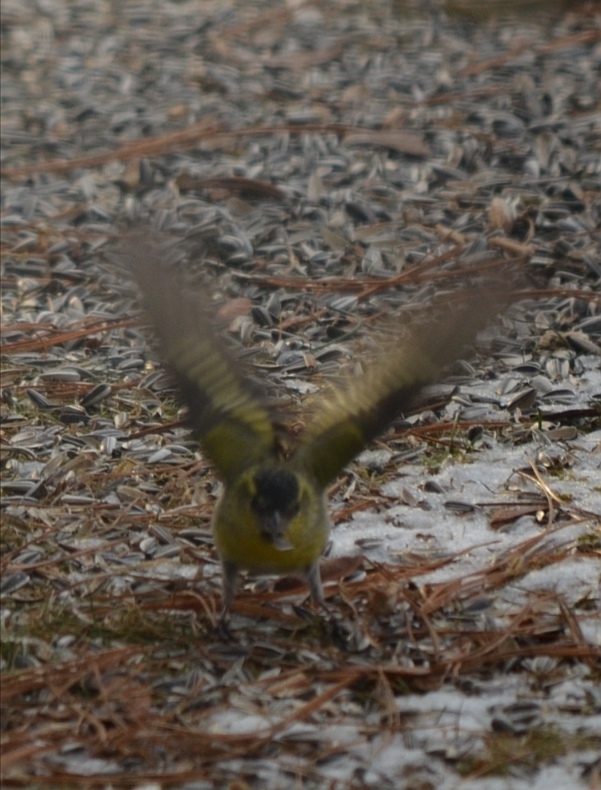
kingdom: Animalia
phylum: Chordata
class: Aves
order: Passeriformes
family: Fringillidae
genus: Spinus
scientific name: Spinus spinus
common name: Eurasian siskin
